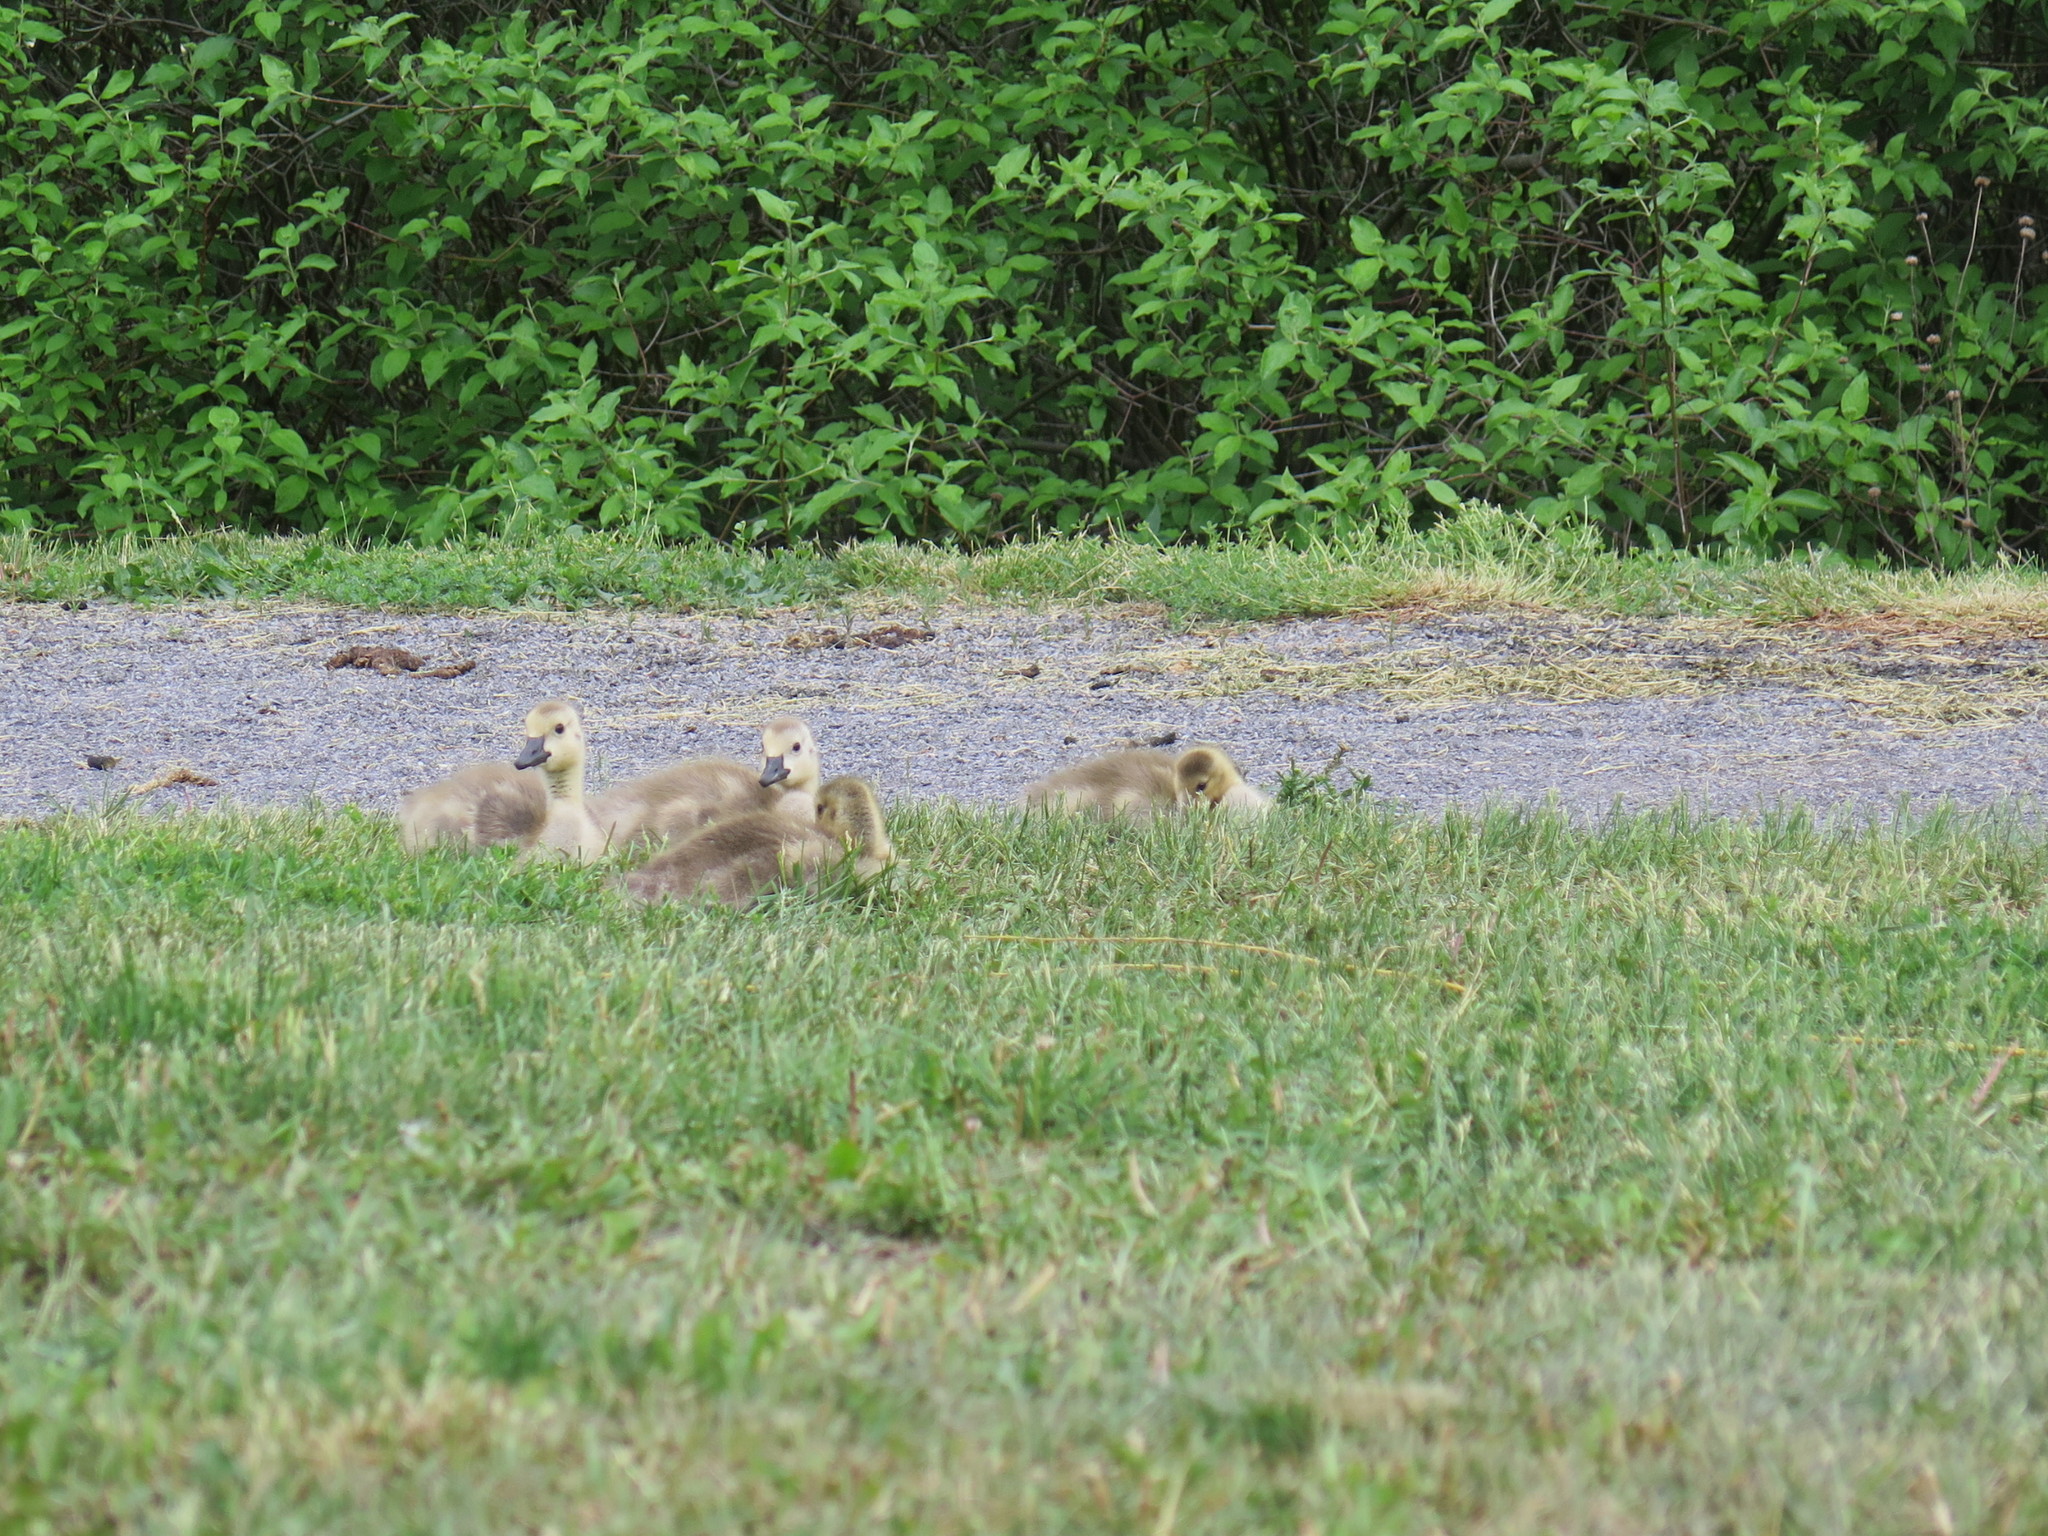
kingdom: Animalia
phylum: Chordata
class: Aves
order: Anseriformes
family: Anatidae
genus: Branta
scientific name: Branta canadensis
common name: Canada goose
